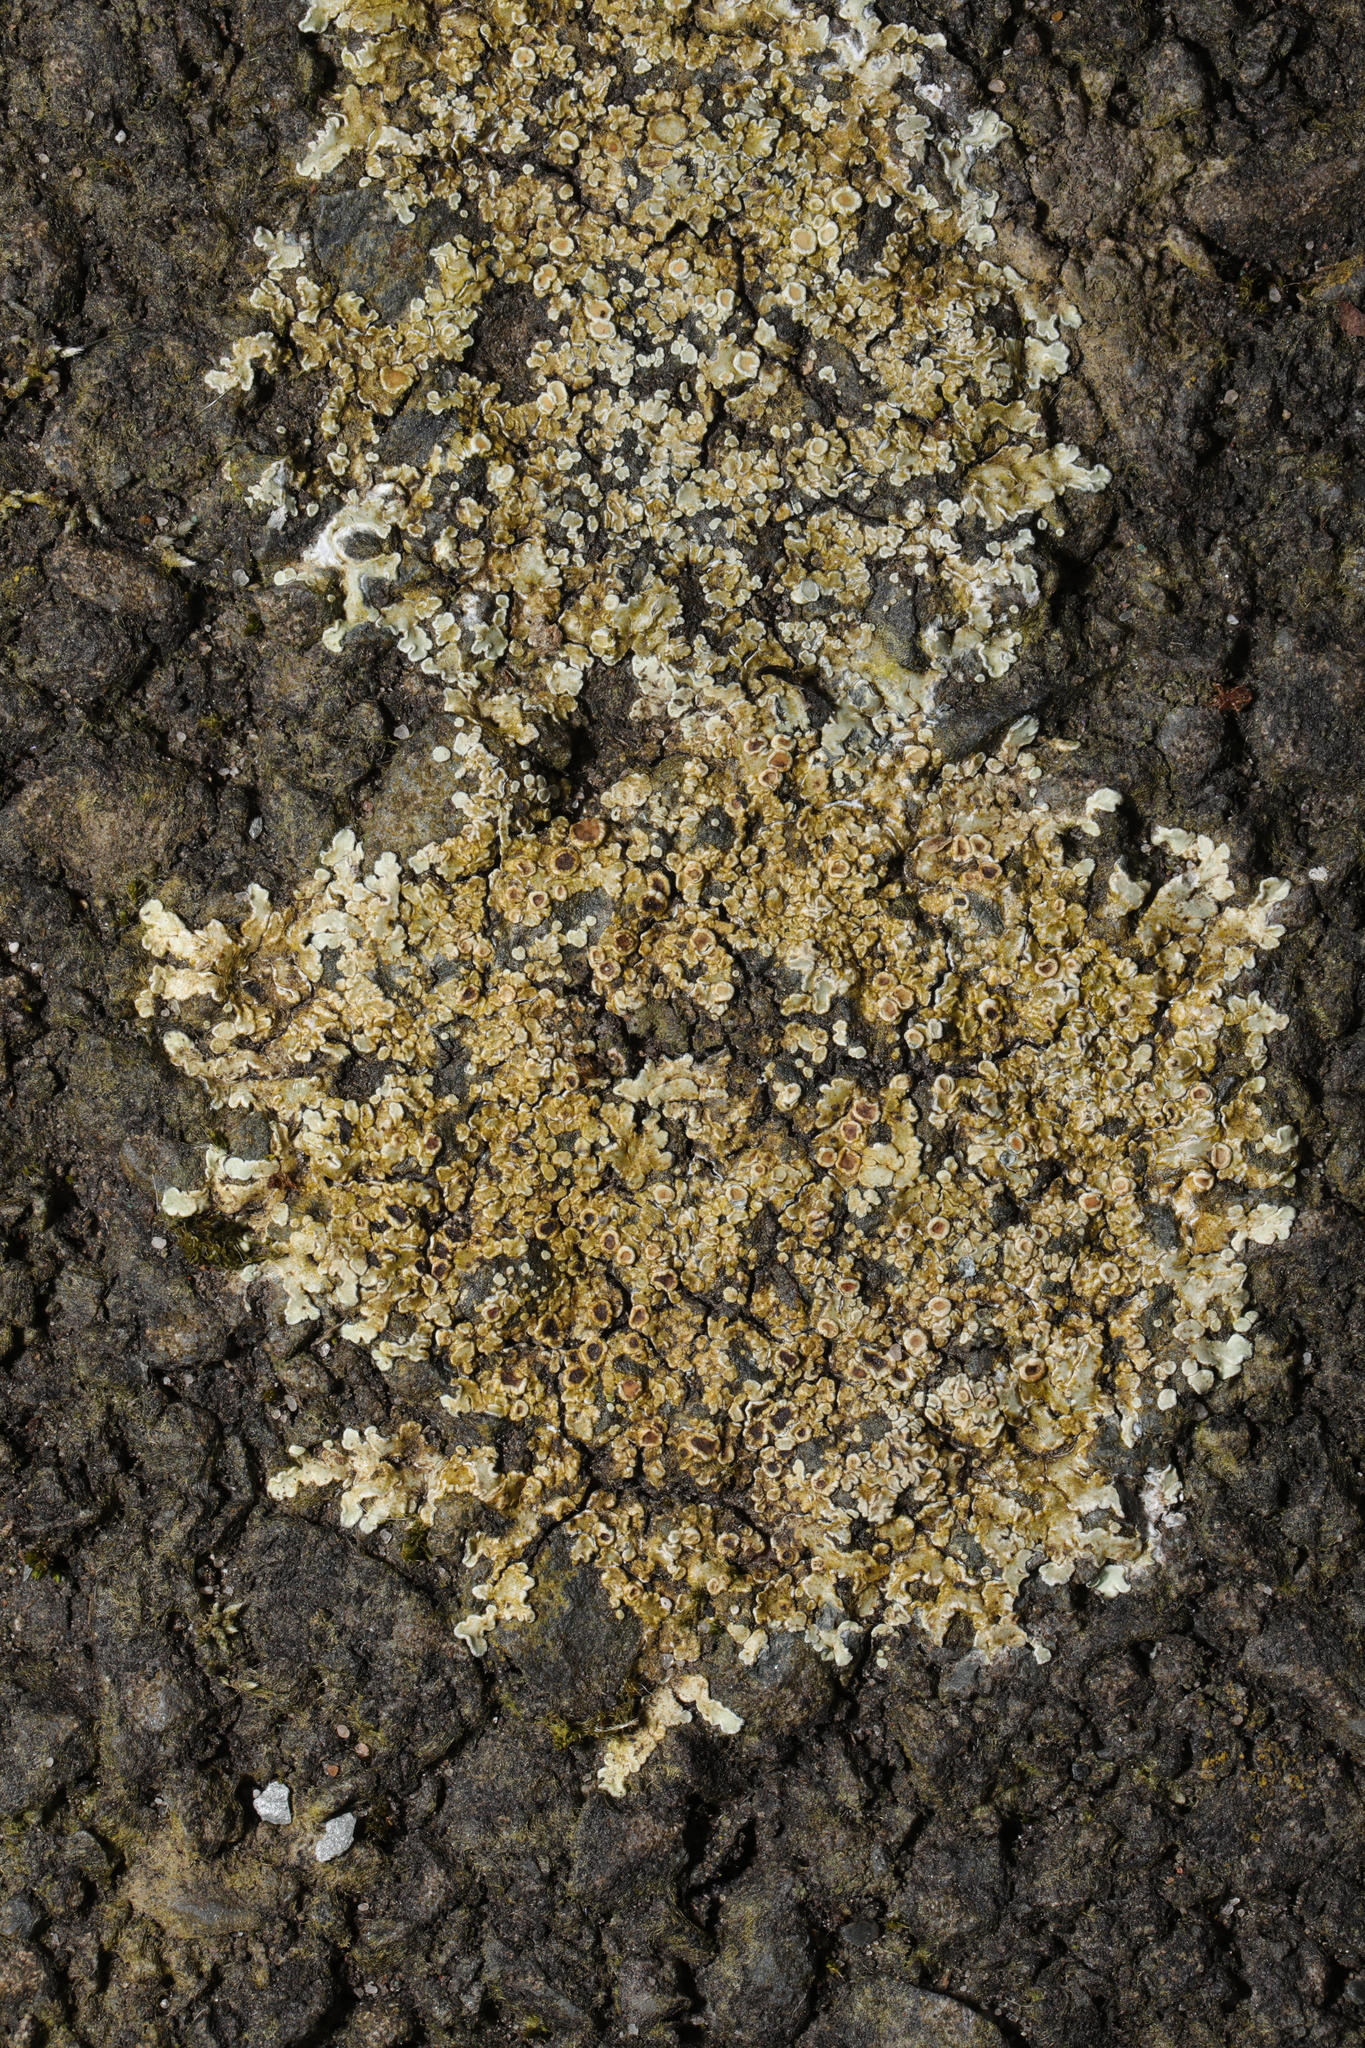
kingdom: Fungi
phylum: Ascomycota
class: Lecanoromycetes
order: Lecanorales
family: Lecanoraceae
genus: Protoparmeliopsis
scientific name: Protoparmeliopsis muralis
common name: Stonewall rim lichen
